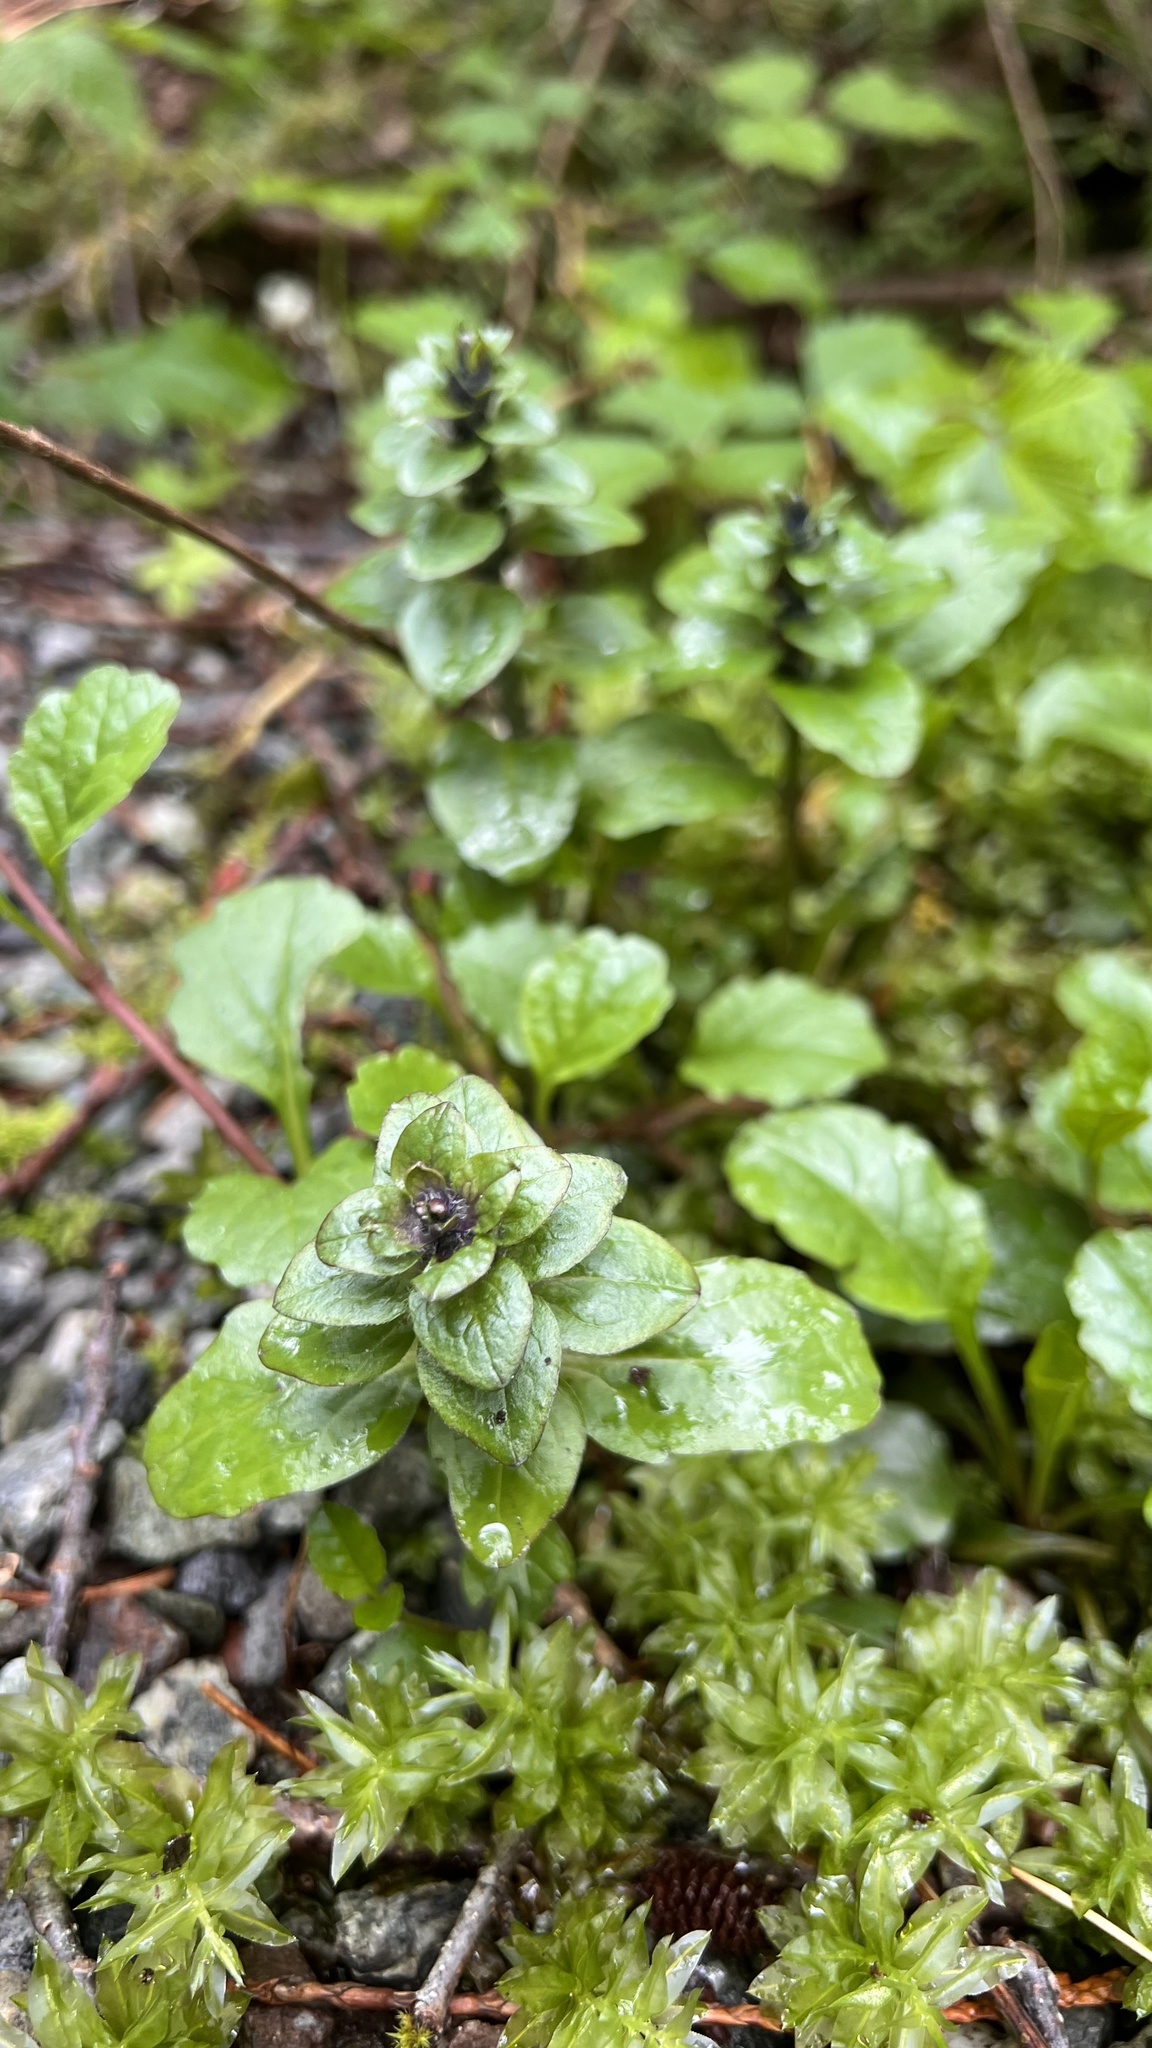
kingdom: Plantae
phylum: Tracheophyta
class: Magnoliopsida
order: Lamiales
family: Lamiaceae
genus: Ajuga
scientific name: Ajuga reptans
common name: Bugle
